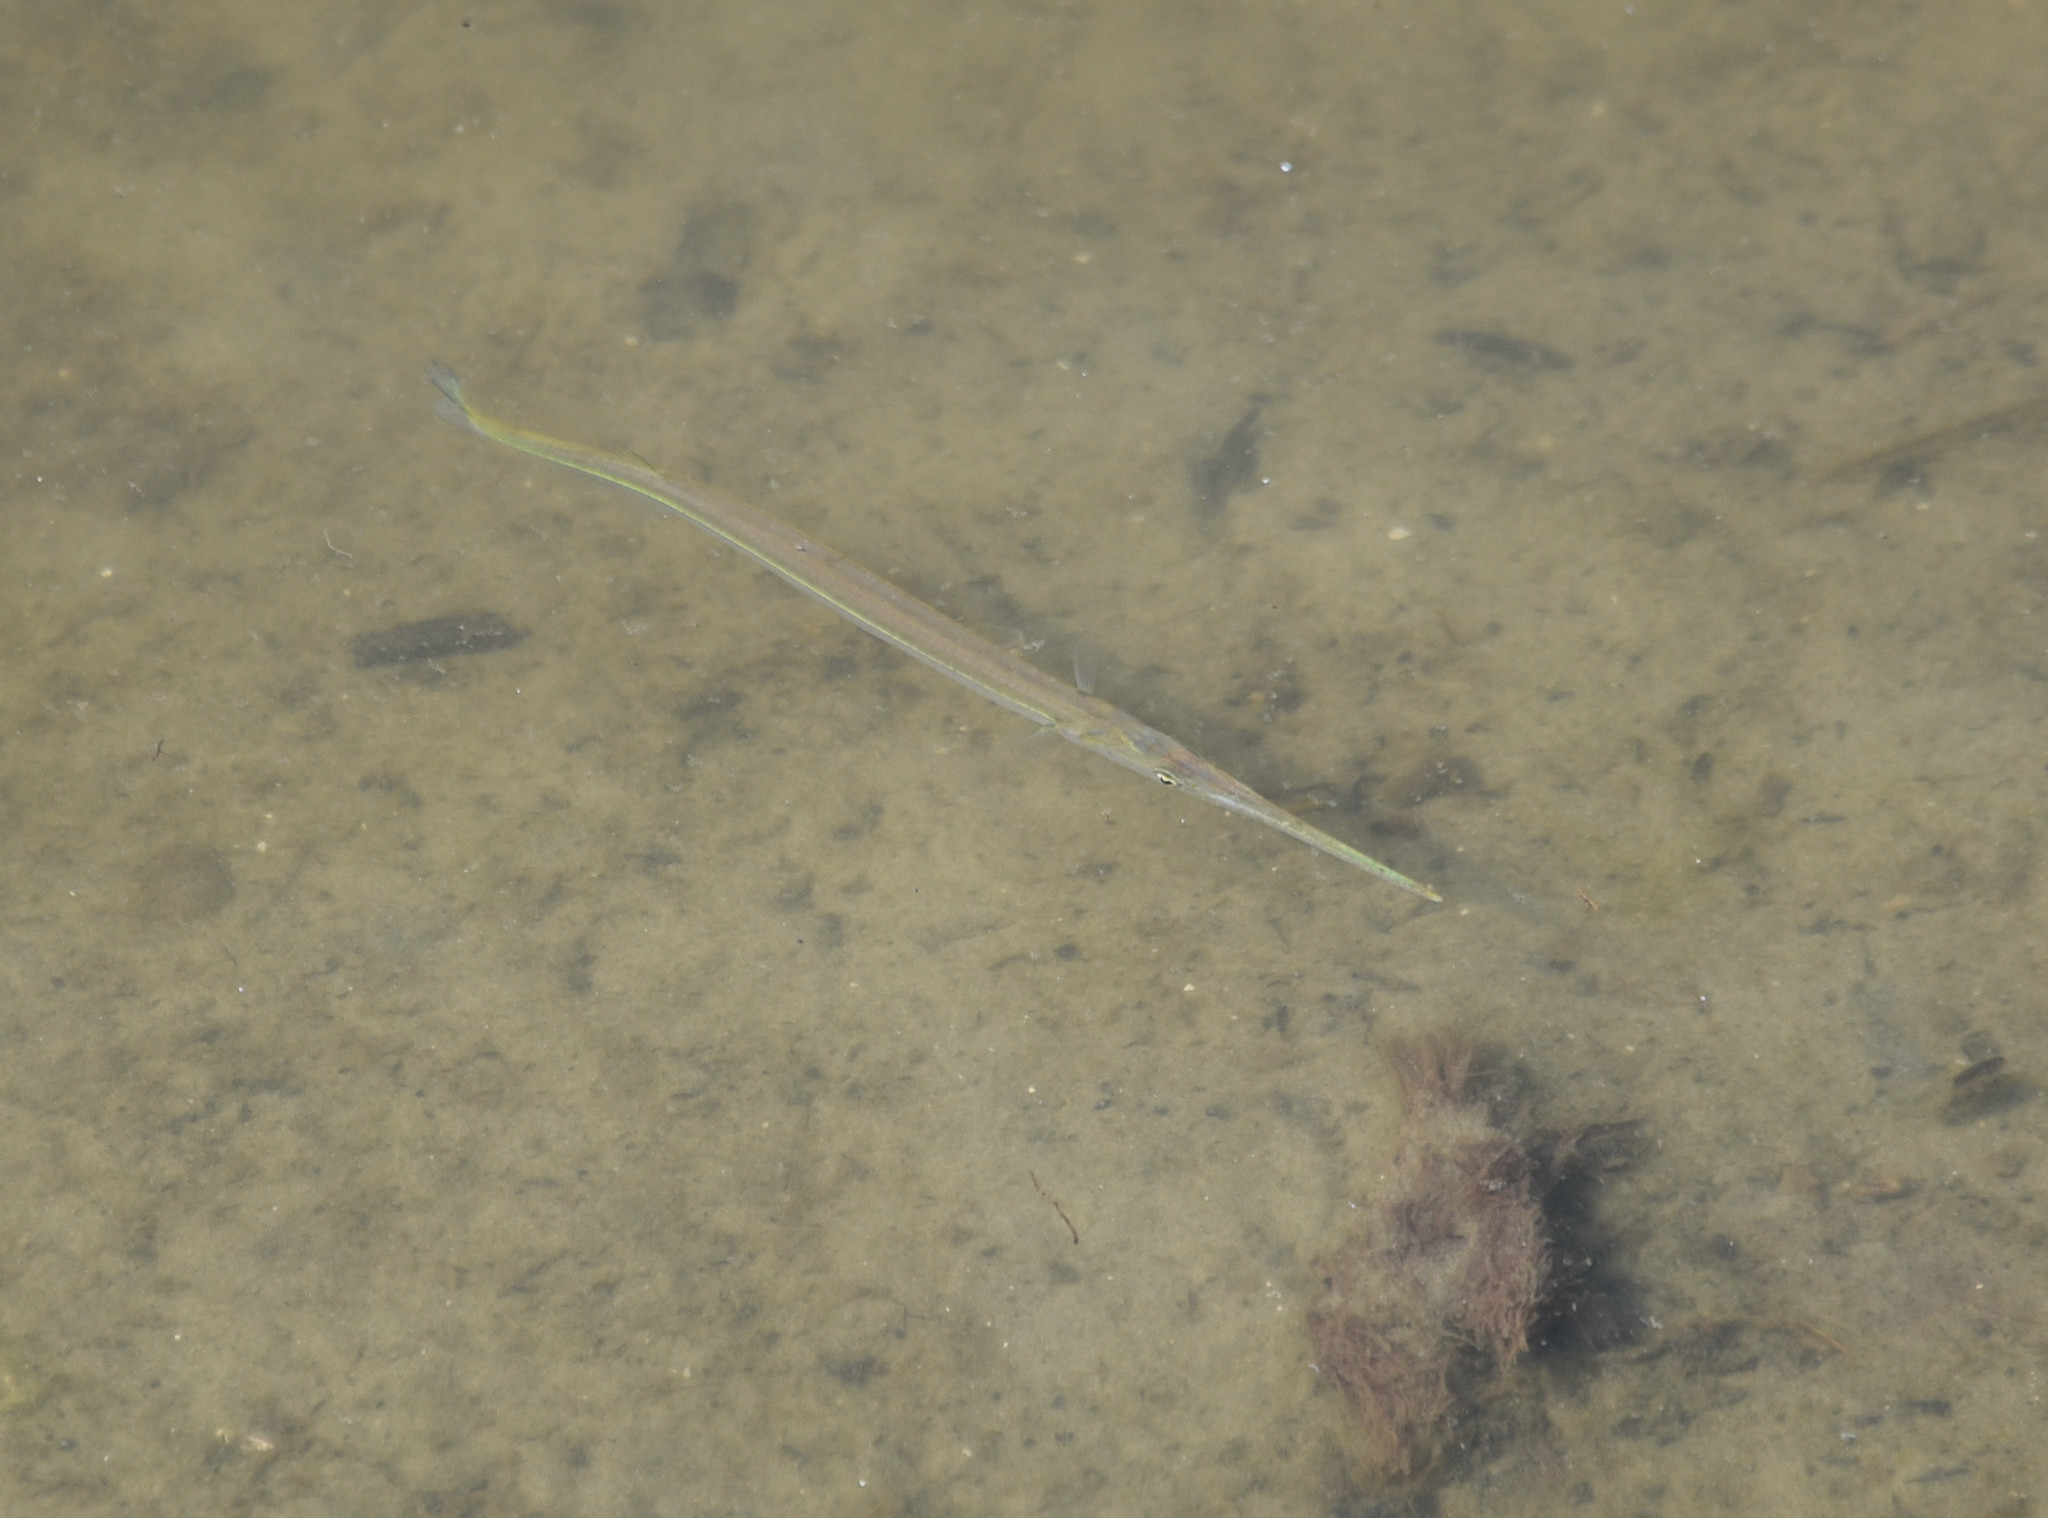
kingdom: Animalia
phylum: Chordata
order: Beloniformes
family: Belonidae
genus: Strongylura
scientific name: Strongylura marina
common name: Atlantic needlefish
